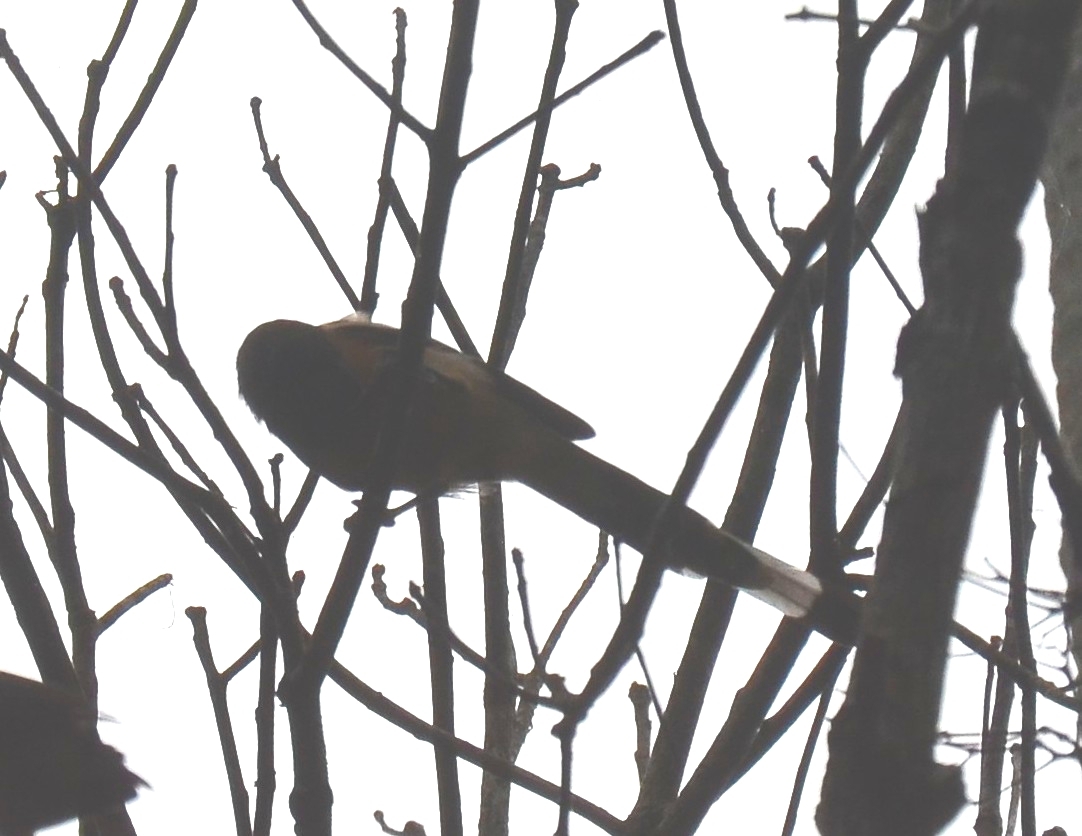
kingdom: Animalia
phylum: Chordata
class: Aves
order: Passeriformes
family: Corvidae
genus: Dendrocitta
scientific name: Dendrocitta vagabunda
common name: Rufous treepie
